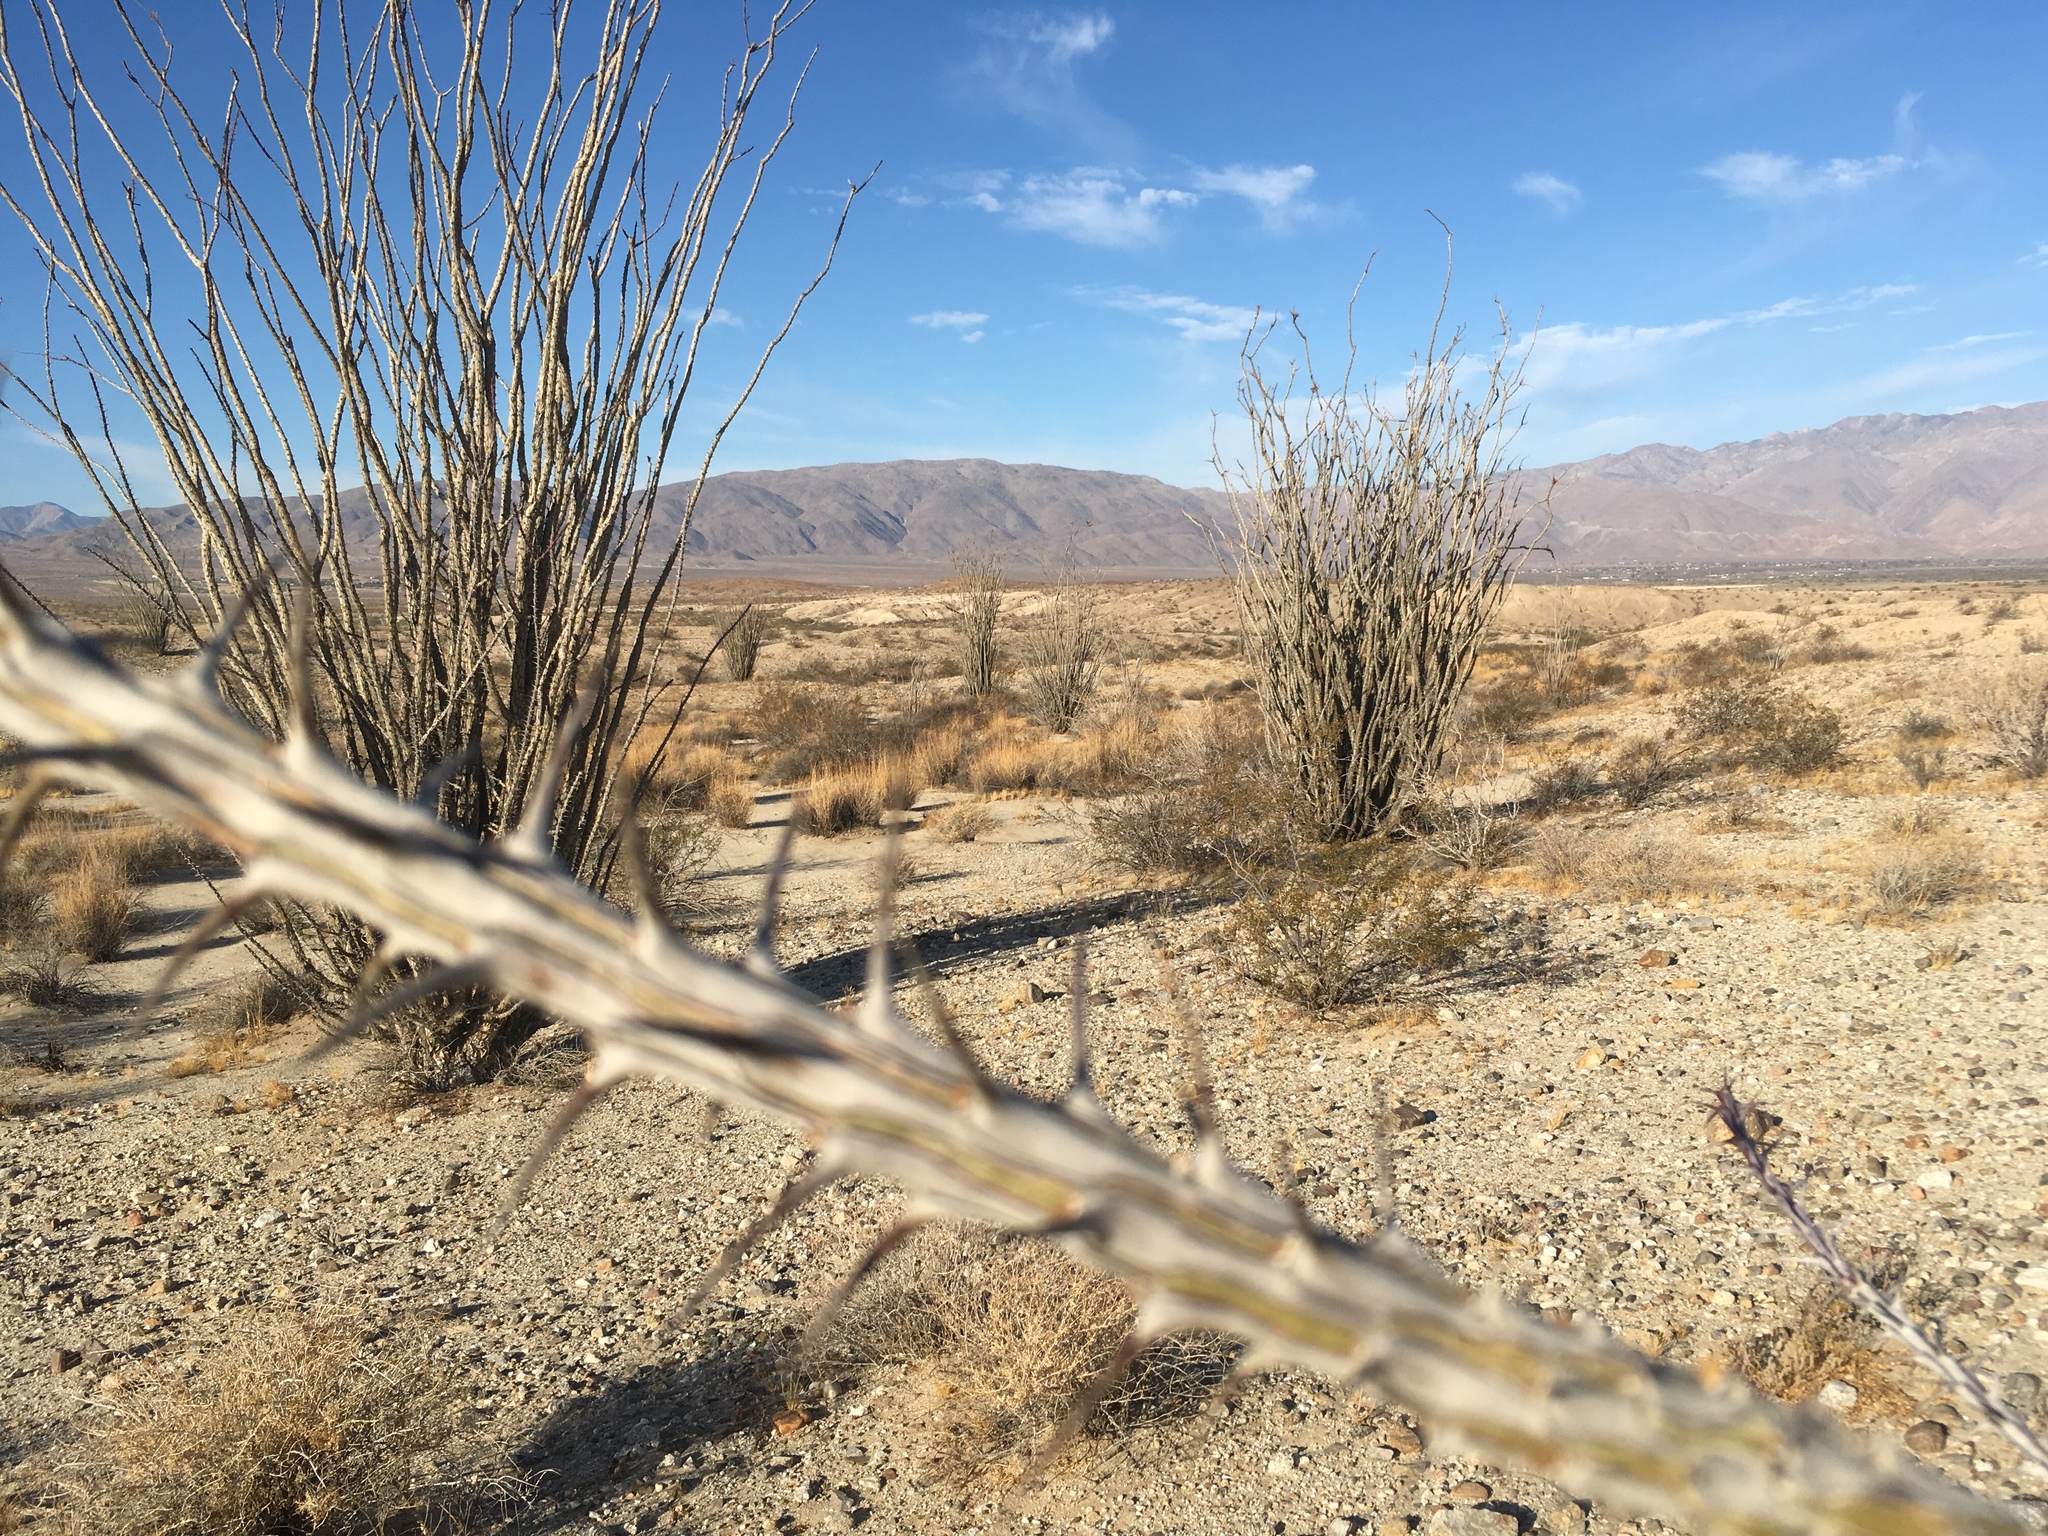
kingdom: Plantae
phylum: Tracheophyta
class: Magnoliopsida
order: Ericales
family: Fouquieriaceae
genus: Fouquieria
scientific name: Fouquieria splendens
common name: Vine-cactus
